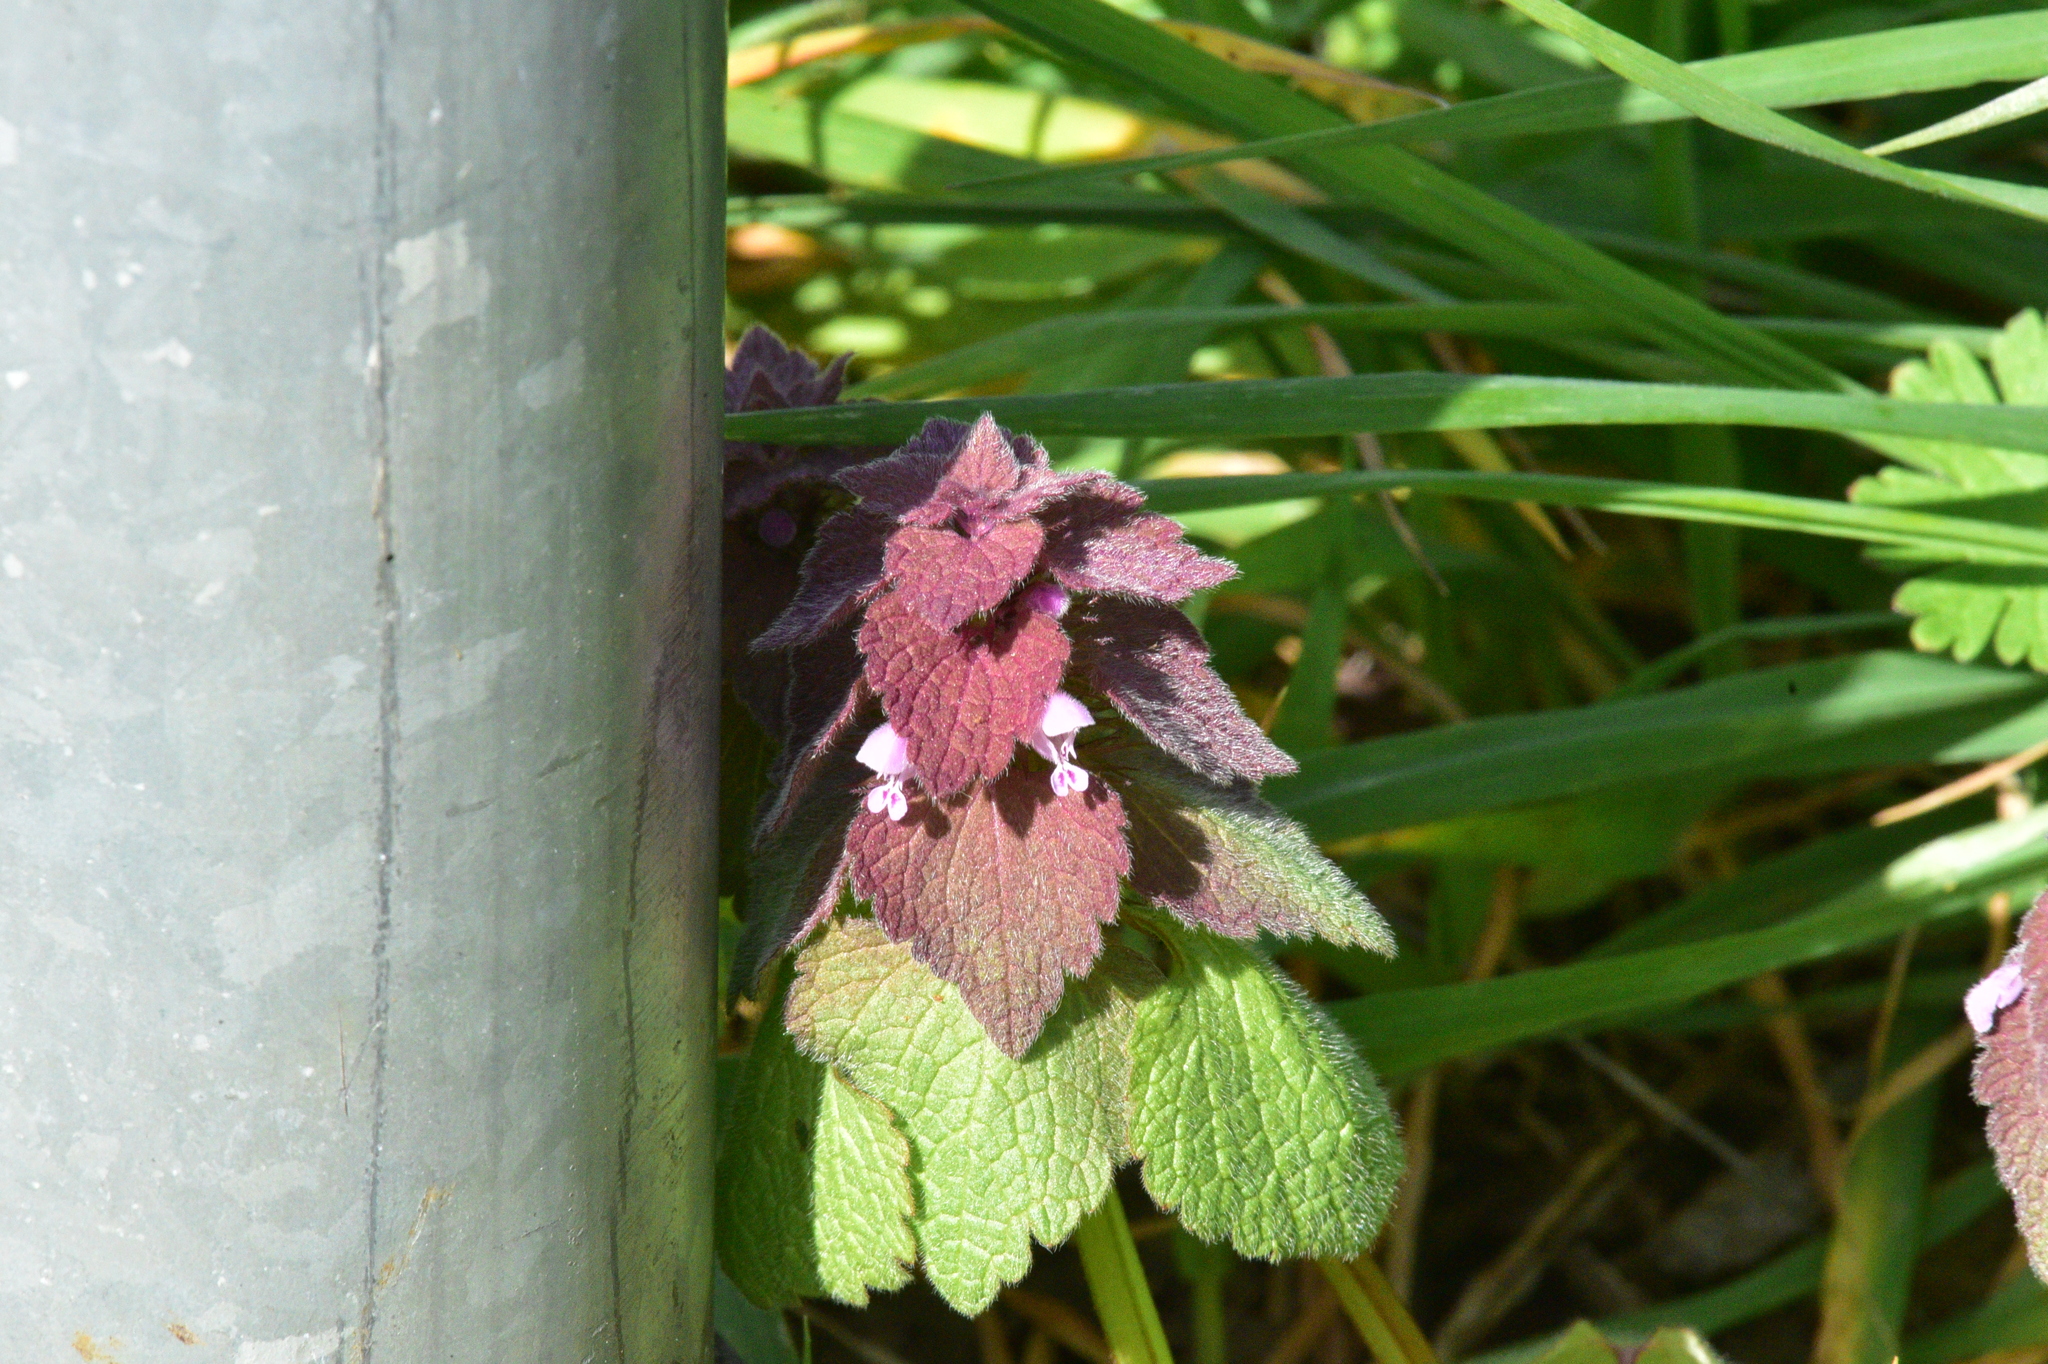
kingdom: Plantae
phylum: Tracheophyta
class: Magnoliopsida
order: Lamiales
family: Lamiaceae
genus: Lamium
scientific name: Lamium purpureum
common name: Red dead-nettle
